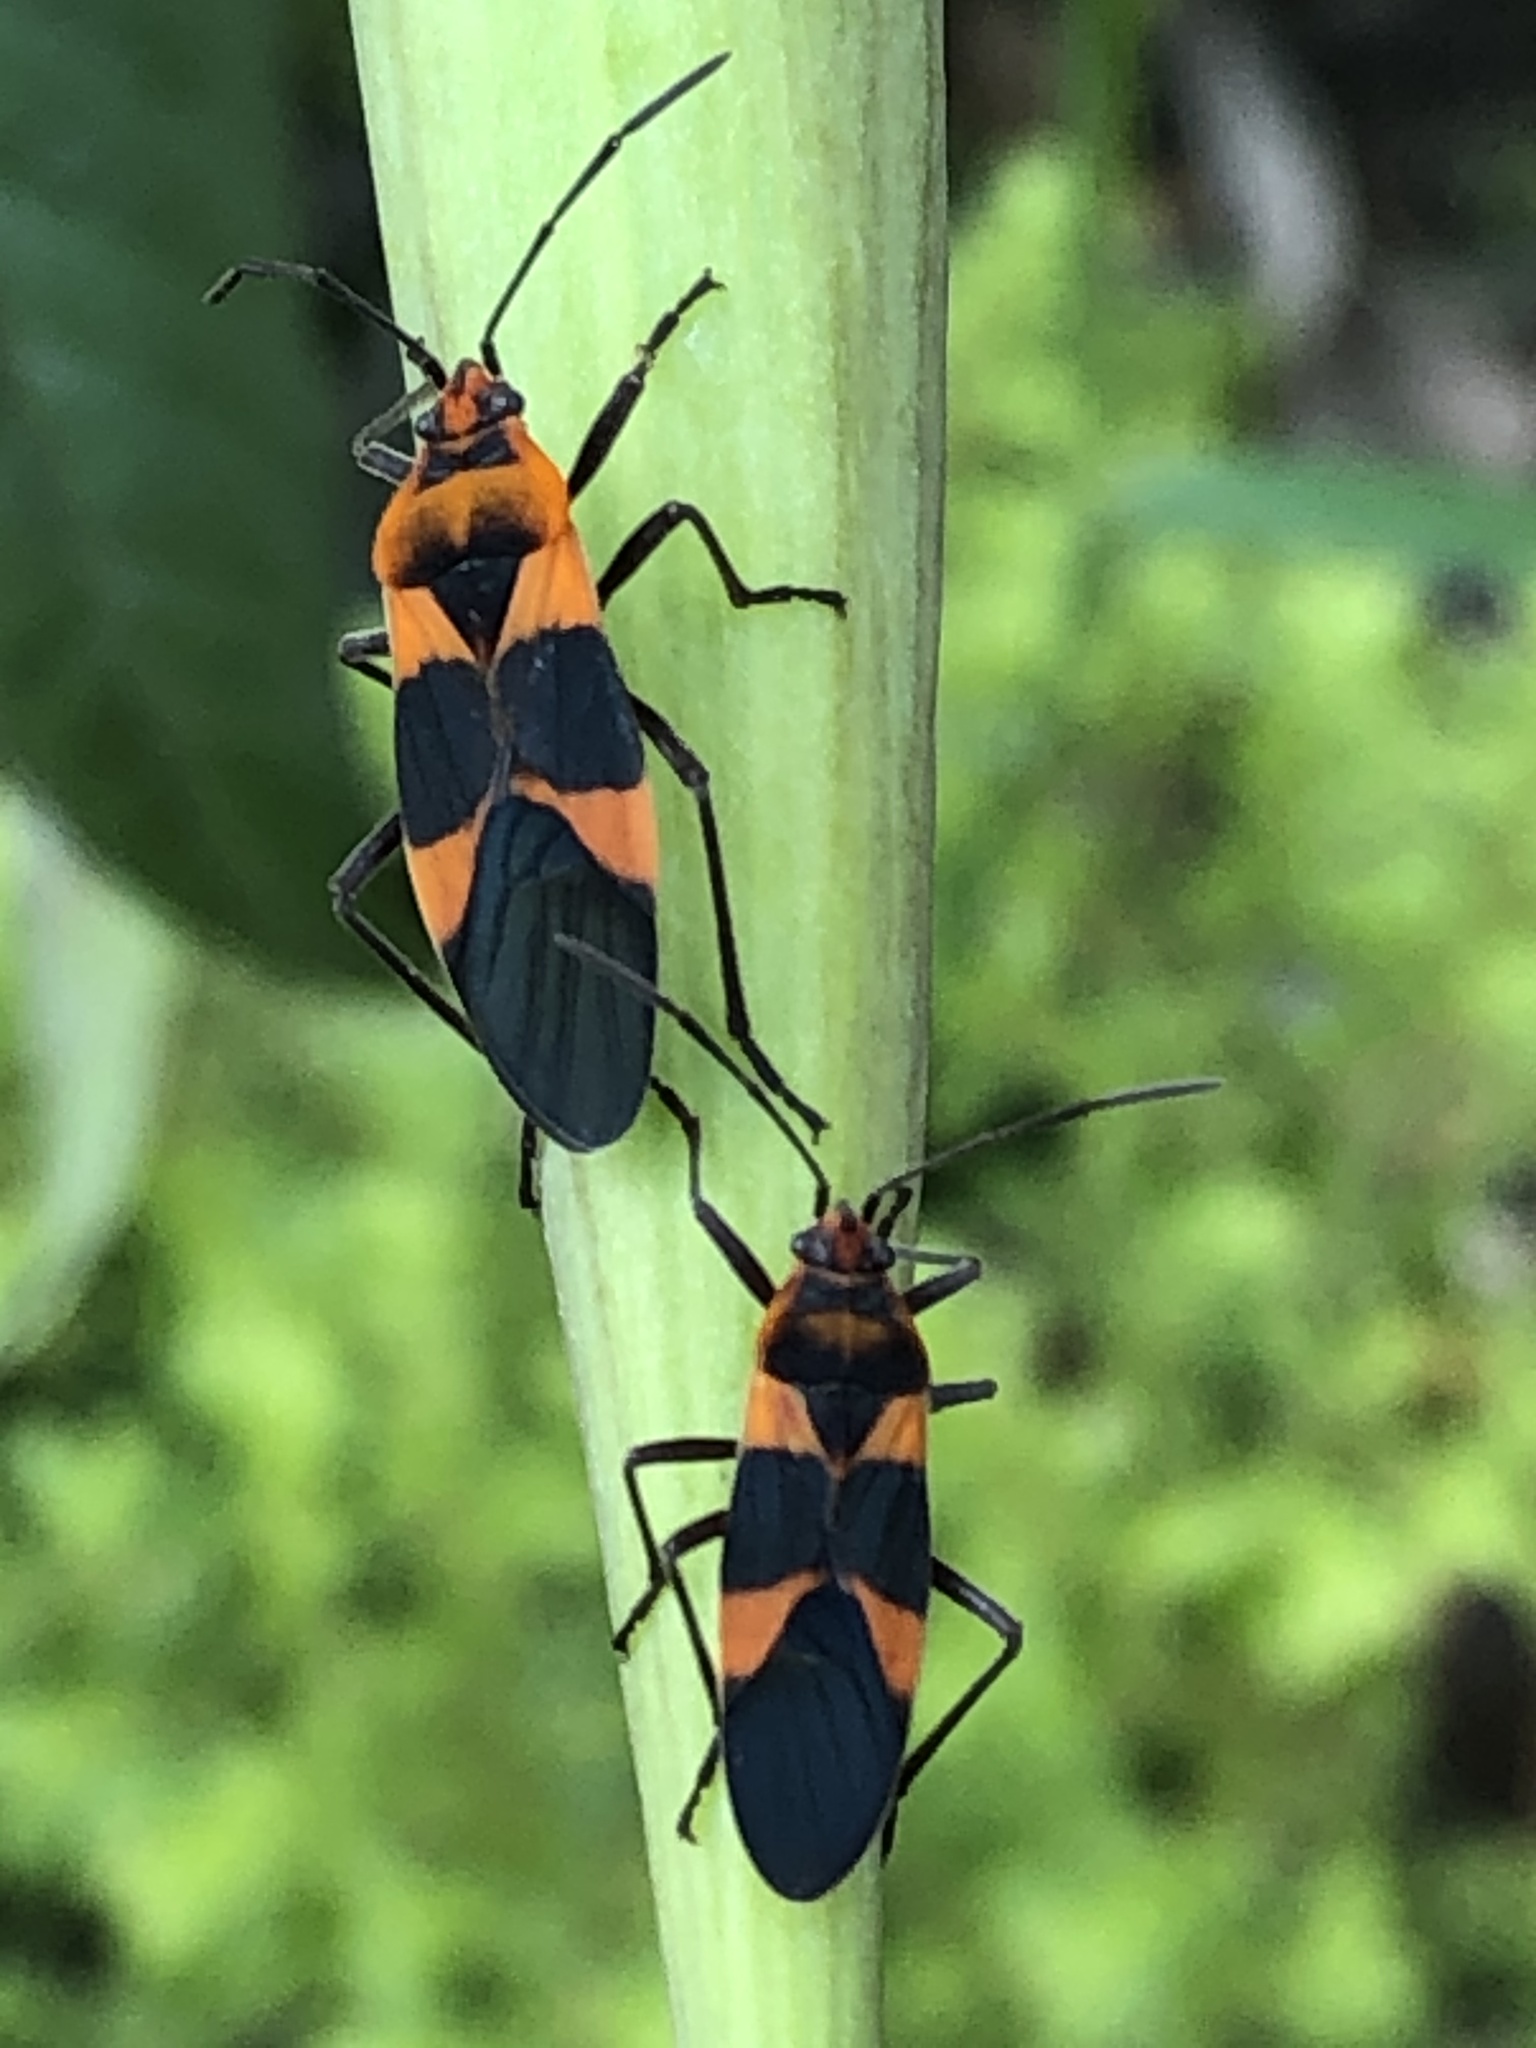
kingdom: Animalia
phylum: Arthropoda
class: Insecta
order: Hemiptera
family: Lygaeidae
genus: Oncopeltus
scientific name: Oncopeltus zonatus
